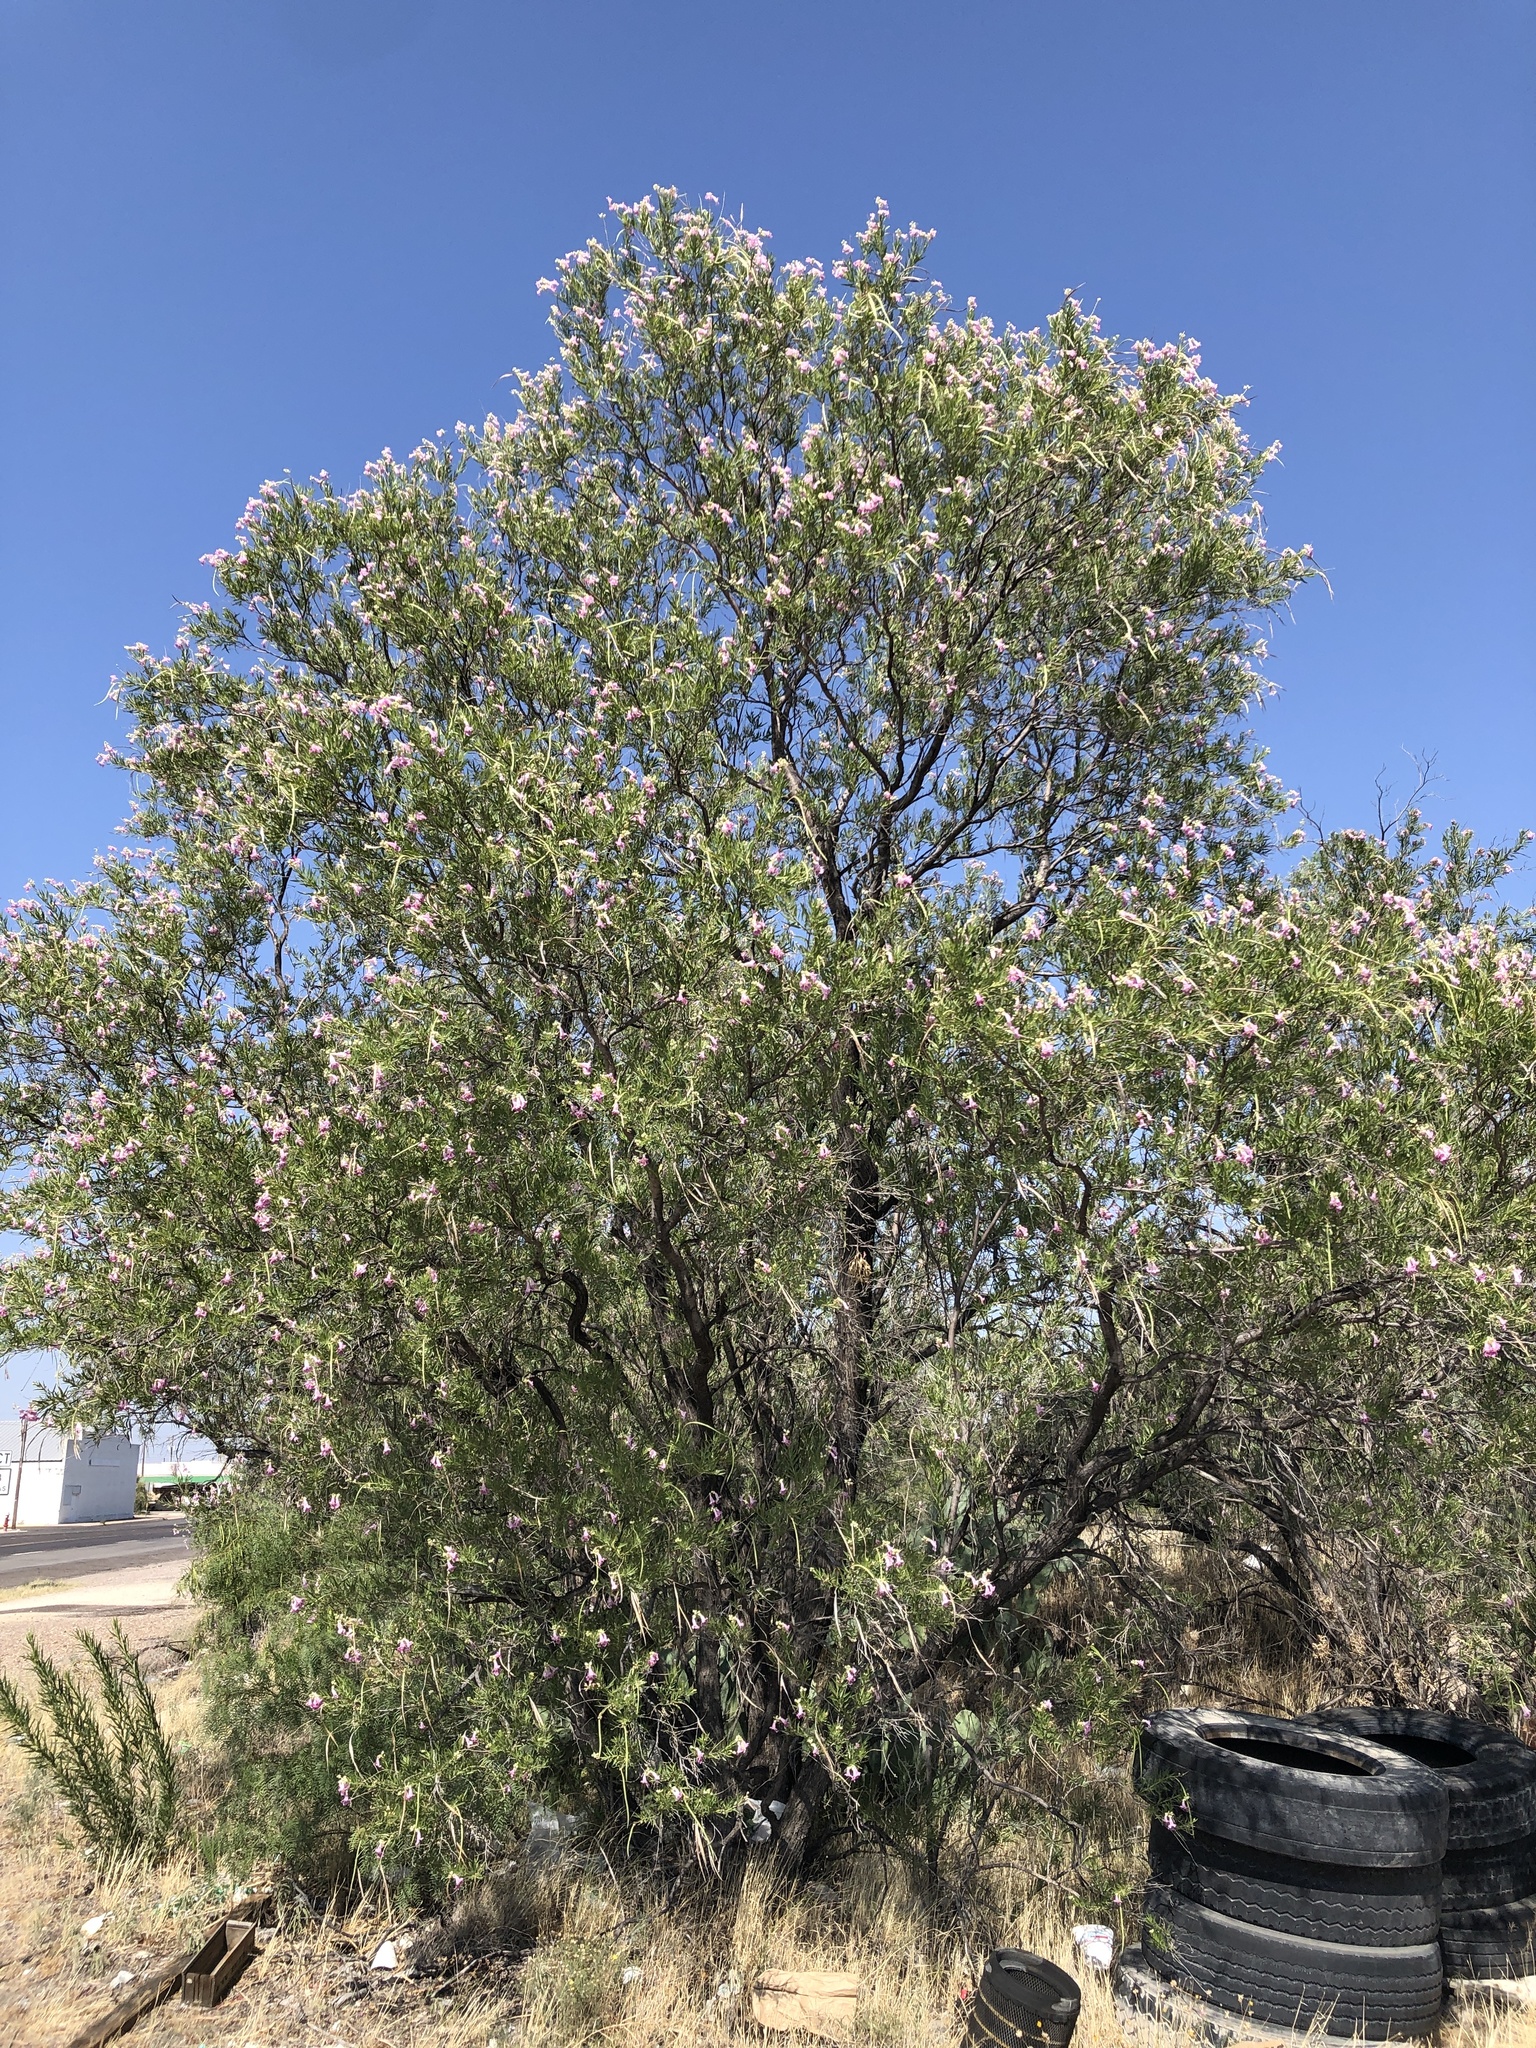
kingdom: Plantae
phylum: Tracheophyta
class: Magnoliopsida
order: Lamiales
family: Bignoniaceae
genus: Chilopsis
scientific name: Chilopsis linearis
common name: Desert-willow
